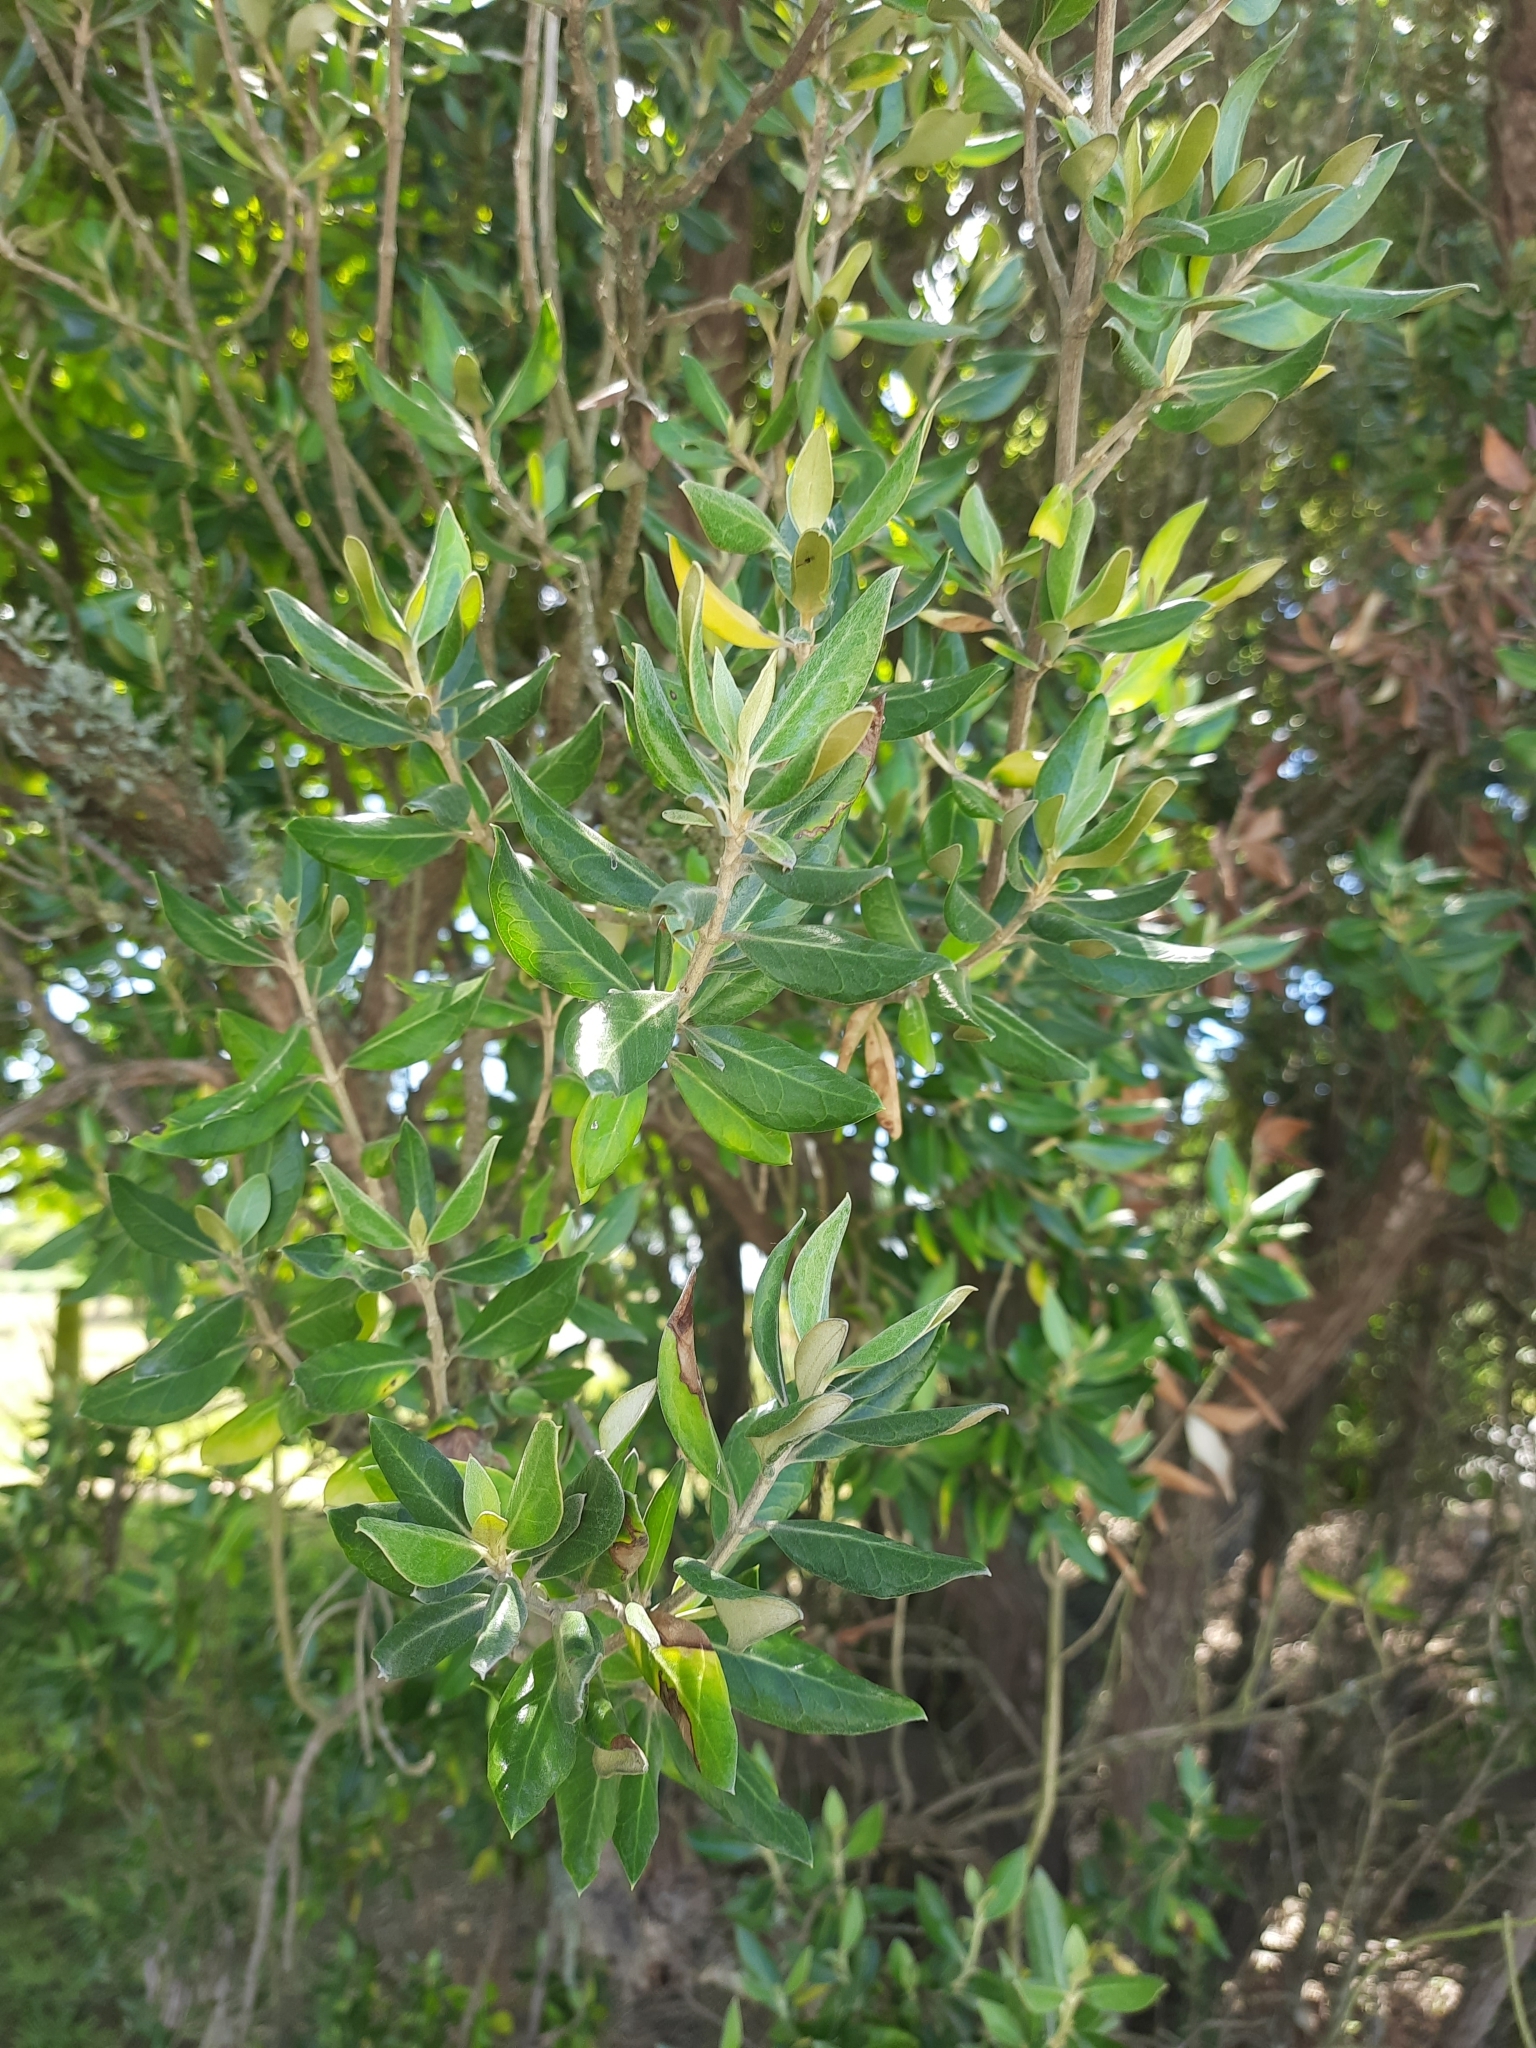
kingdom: Plantae
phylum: Tracheophyta
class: Magnoliopsida
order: Asterales
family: Asteraceae
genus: Olearia
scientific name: Olearia traversiorum
